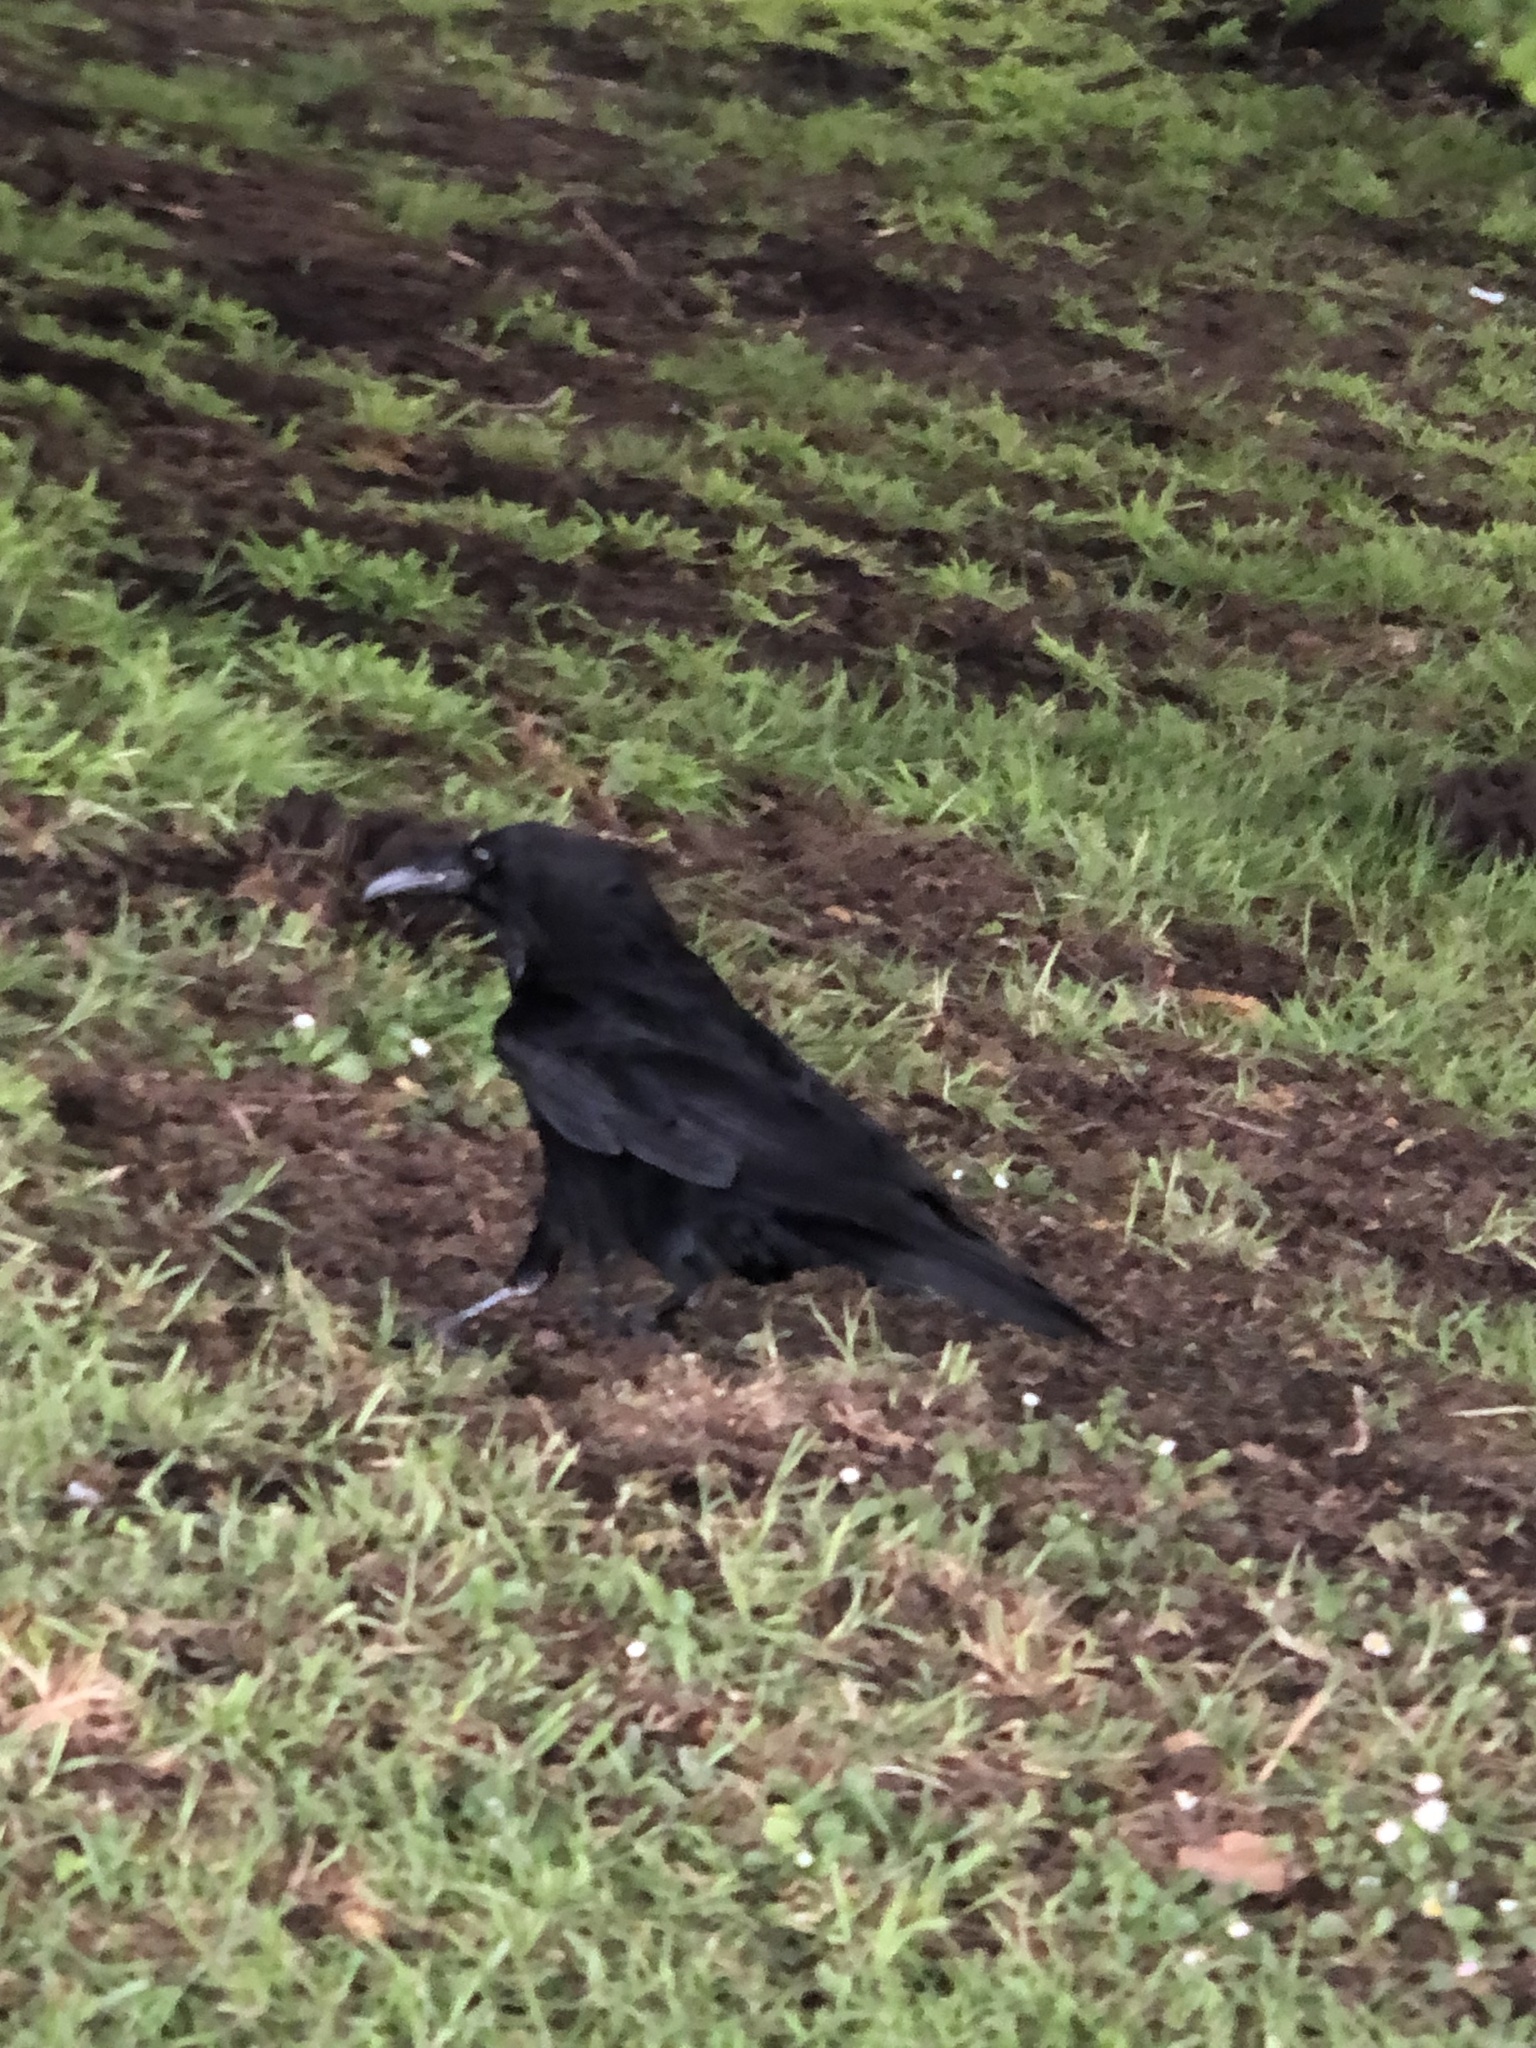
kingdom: Animalia
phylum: Chordata
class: Aves
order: Passeriformes
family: Corvidae
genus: Corvus
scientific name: Corvus corax
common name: Common raven
